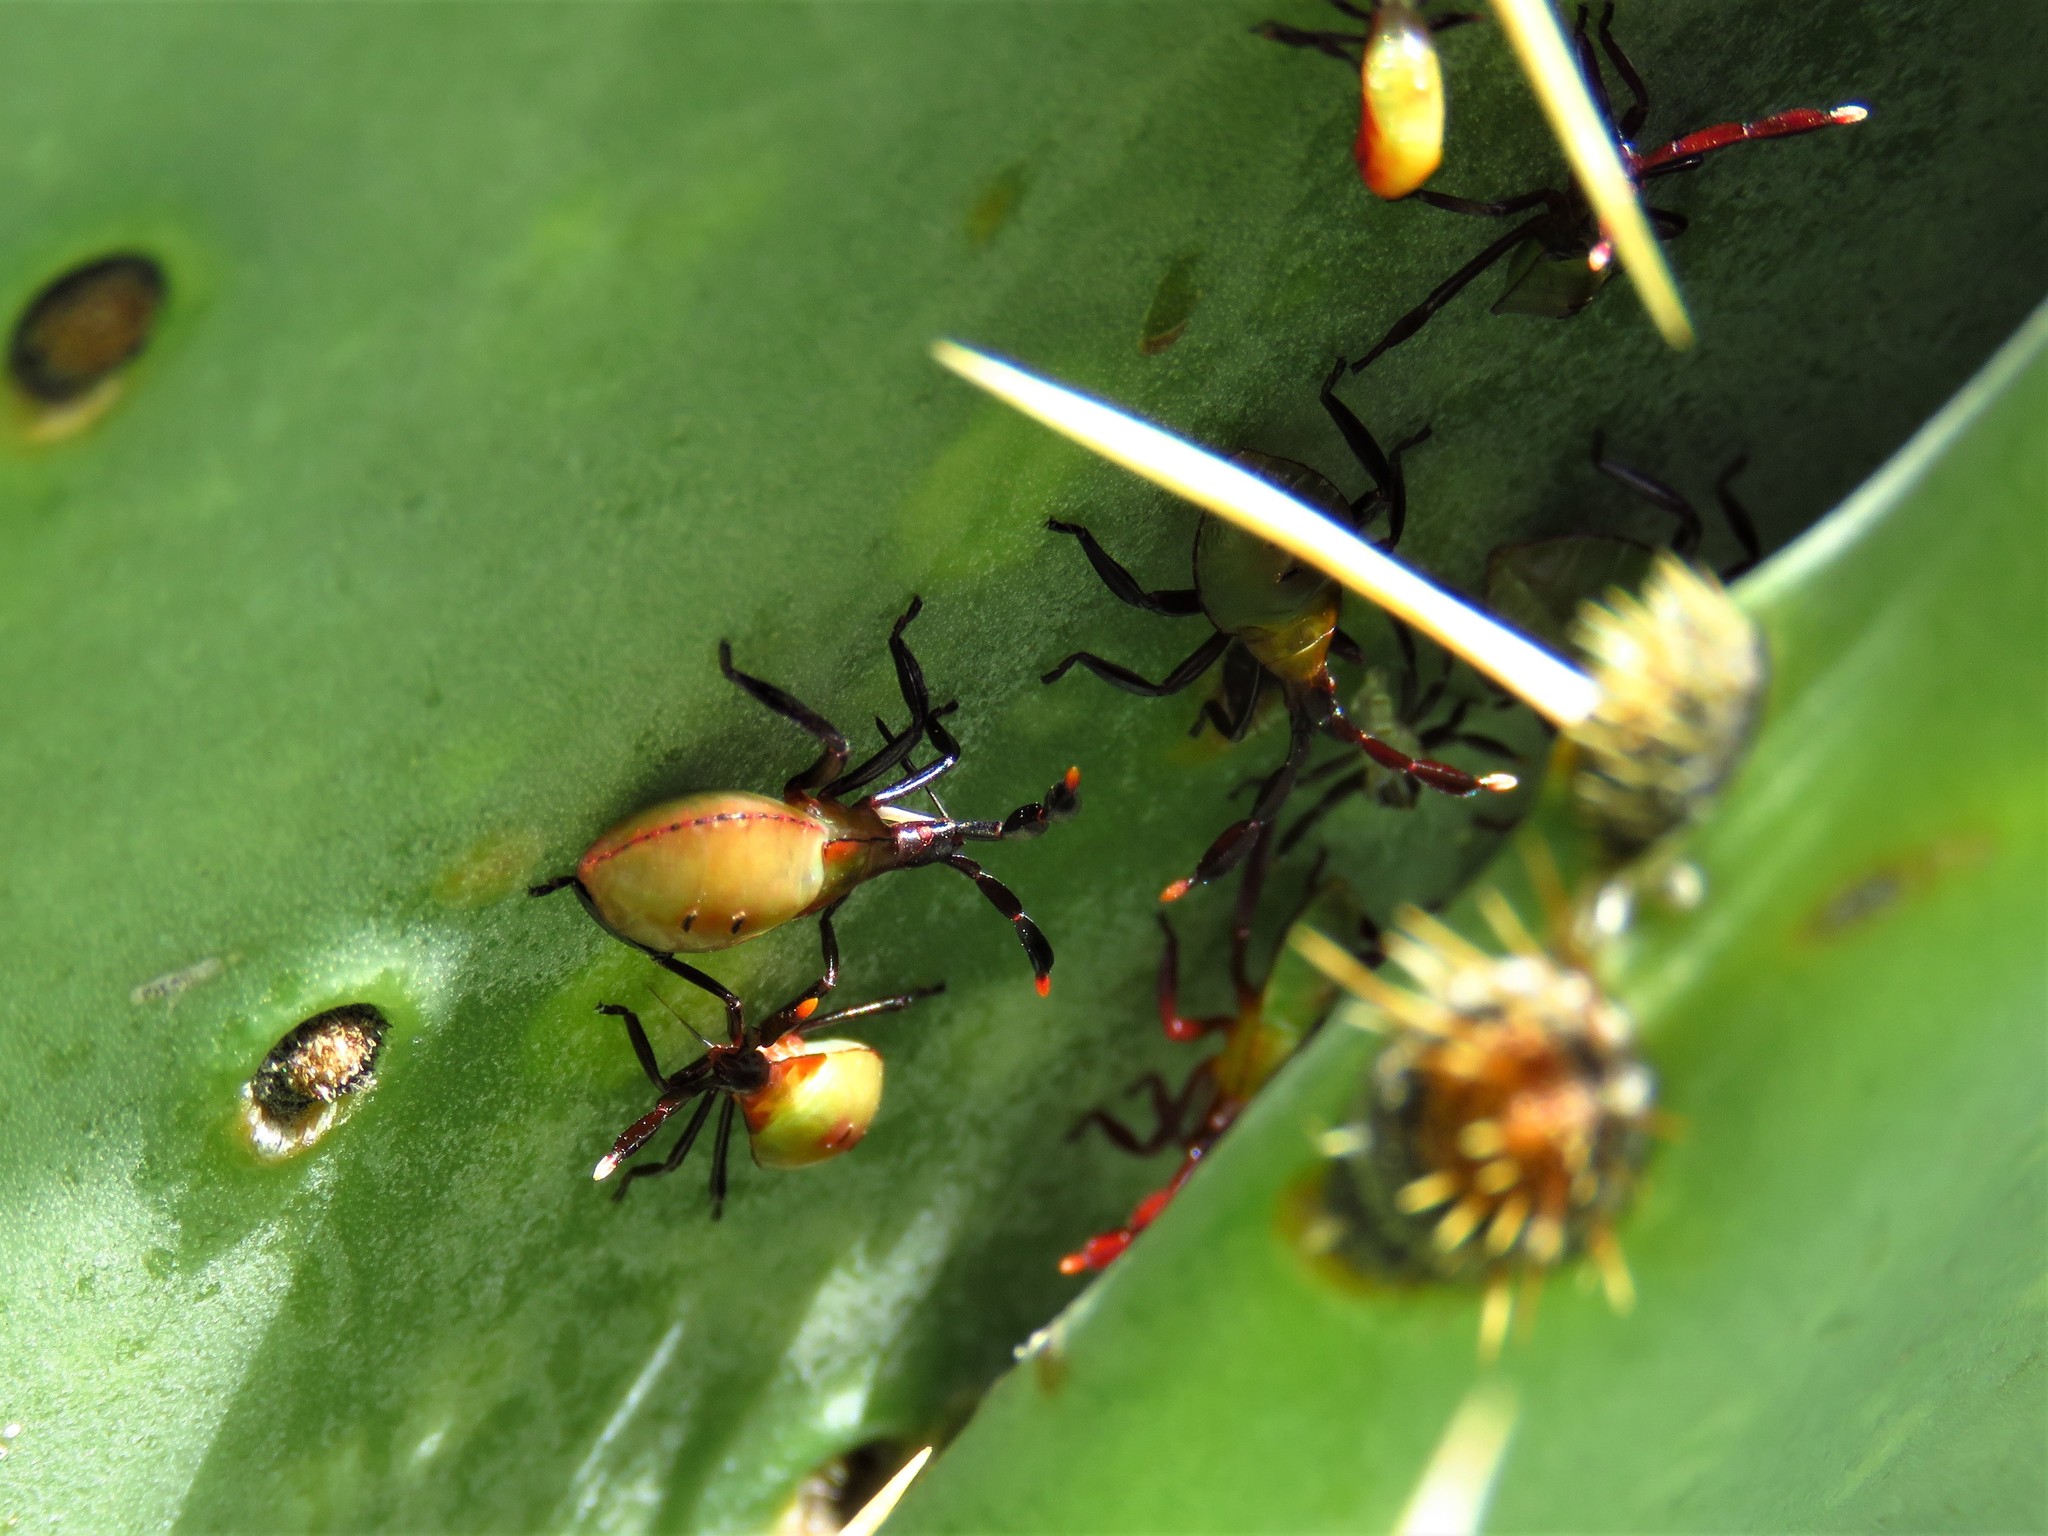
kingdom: Animalia
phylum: Arthropoda
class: Insecta
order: Hemiptera
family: Coreidae
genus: Chelinidea
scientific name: Chelinidea vittiger
